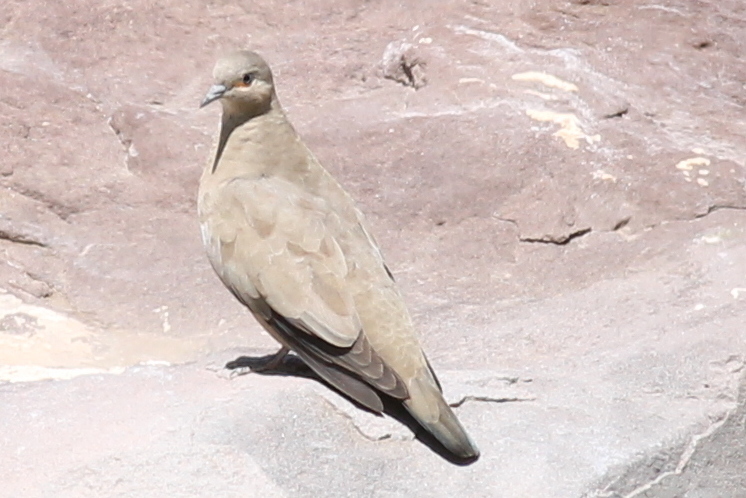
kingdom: Animalia
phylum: Chordata
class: Aves
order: Columbiformes
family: Columbidae
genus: Metriopelia
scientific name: Metriopelia melanoptera
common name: Black-winged ground dove
